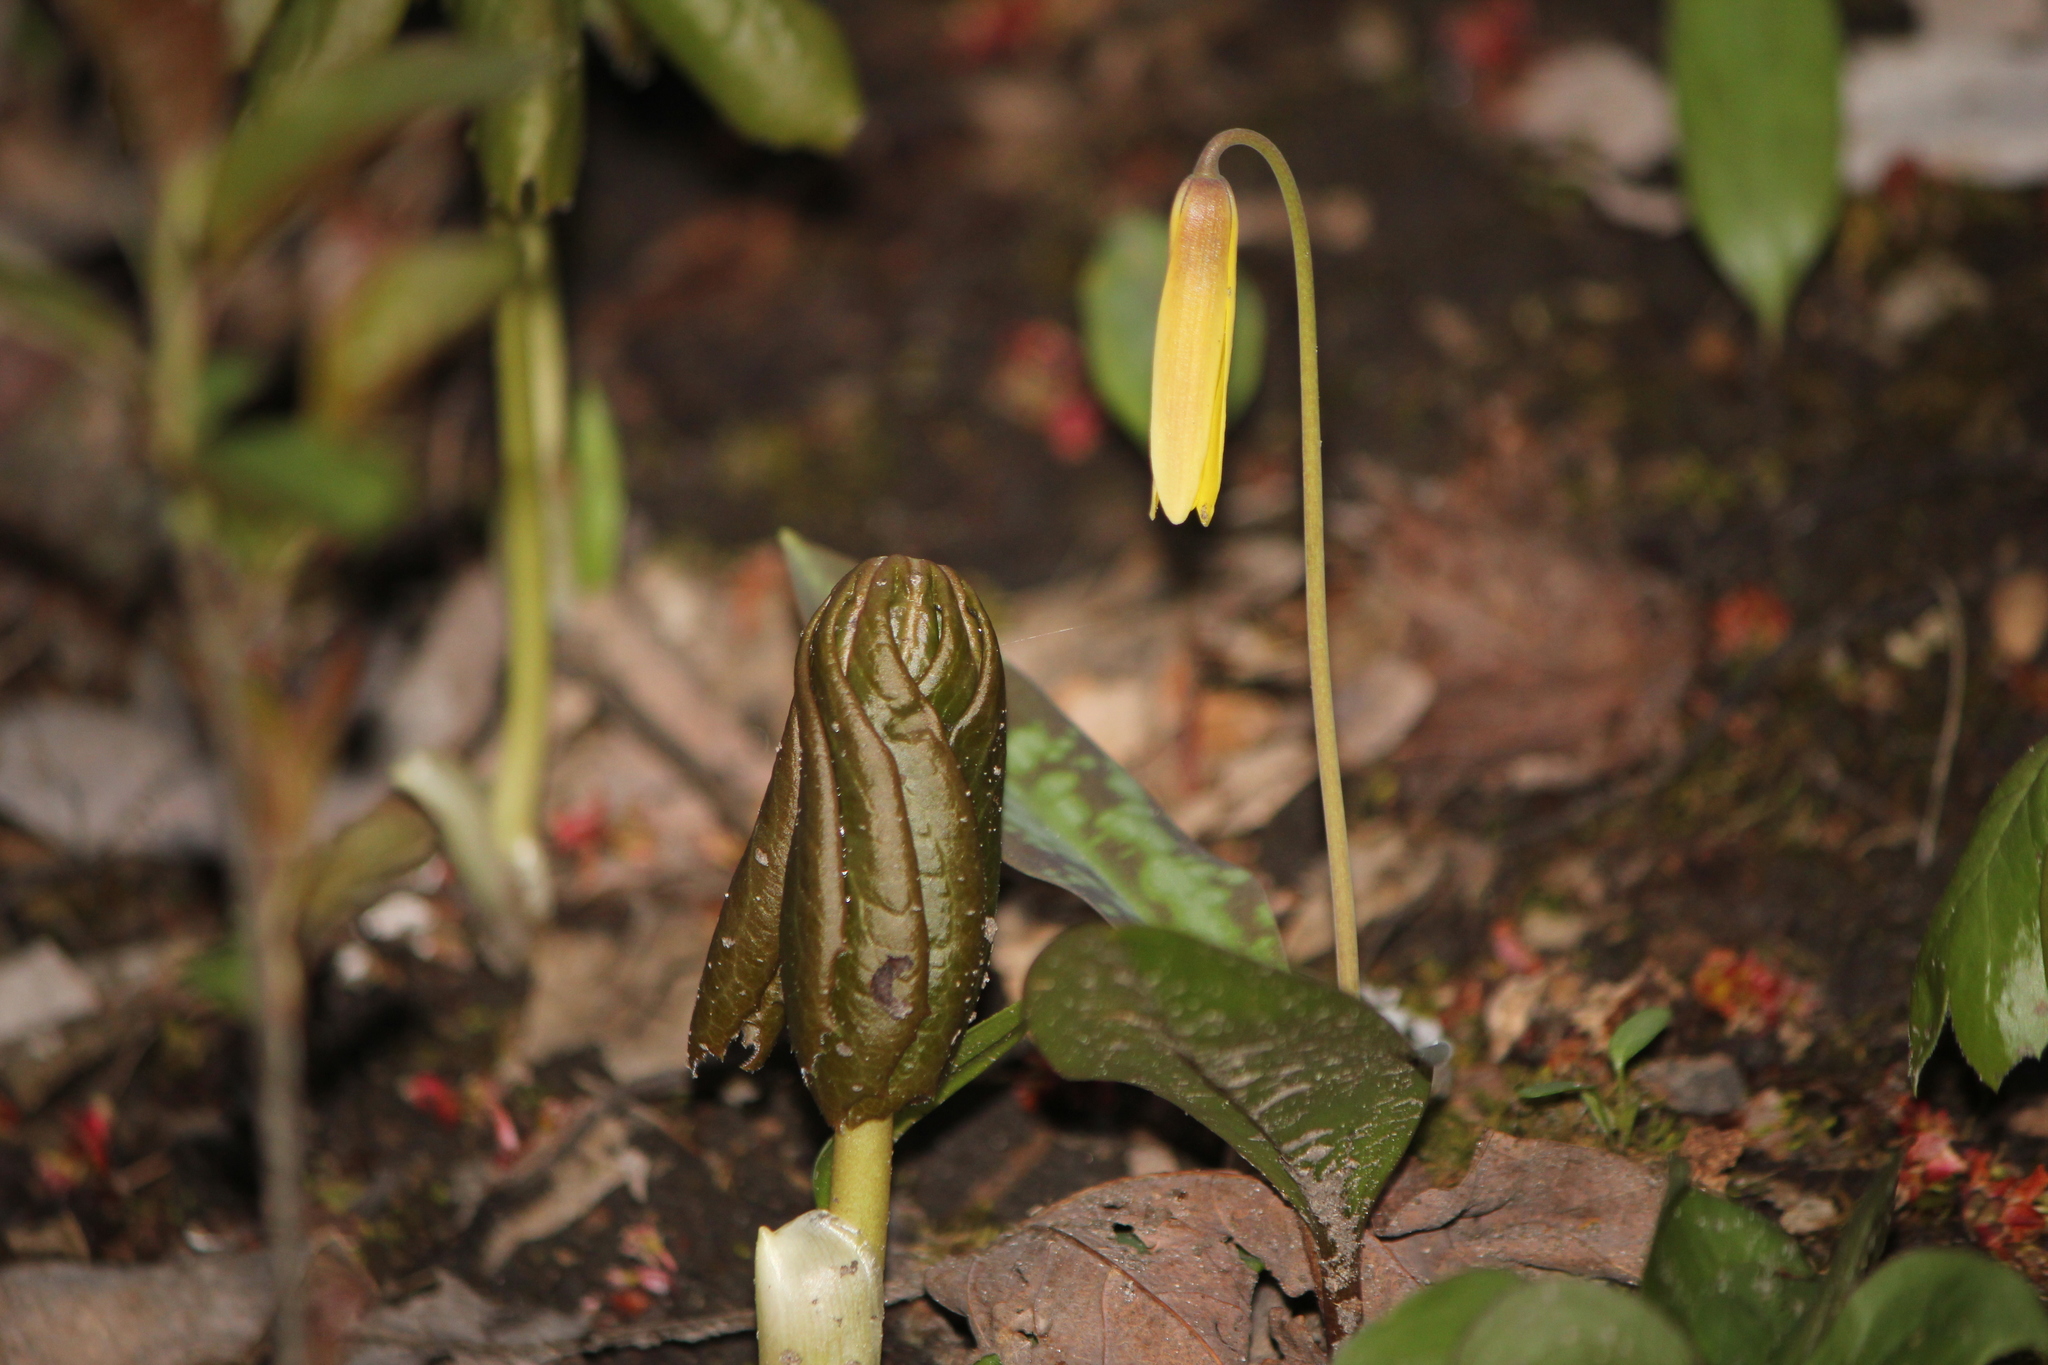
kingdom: Plantae
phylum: Tracheophyta
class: Liliopsida
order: Liliales
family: Liliaceae
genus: Erythronium
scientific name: Erythronium americanum
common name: Yellow adder's-tongue
